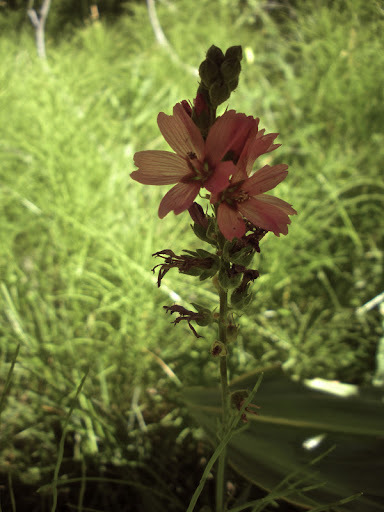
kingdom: Plantae
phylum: Tracheophyta
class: Magnoliopsida
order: Malvales
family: Malvaceae
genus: Sidalcea
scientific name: Sidalcea oregana
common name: Oregon checker-mallow
